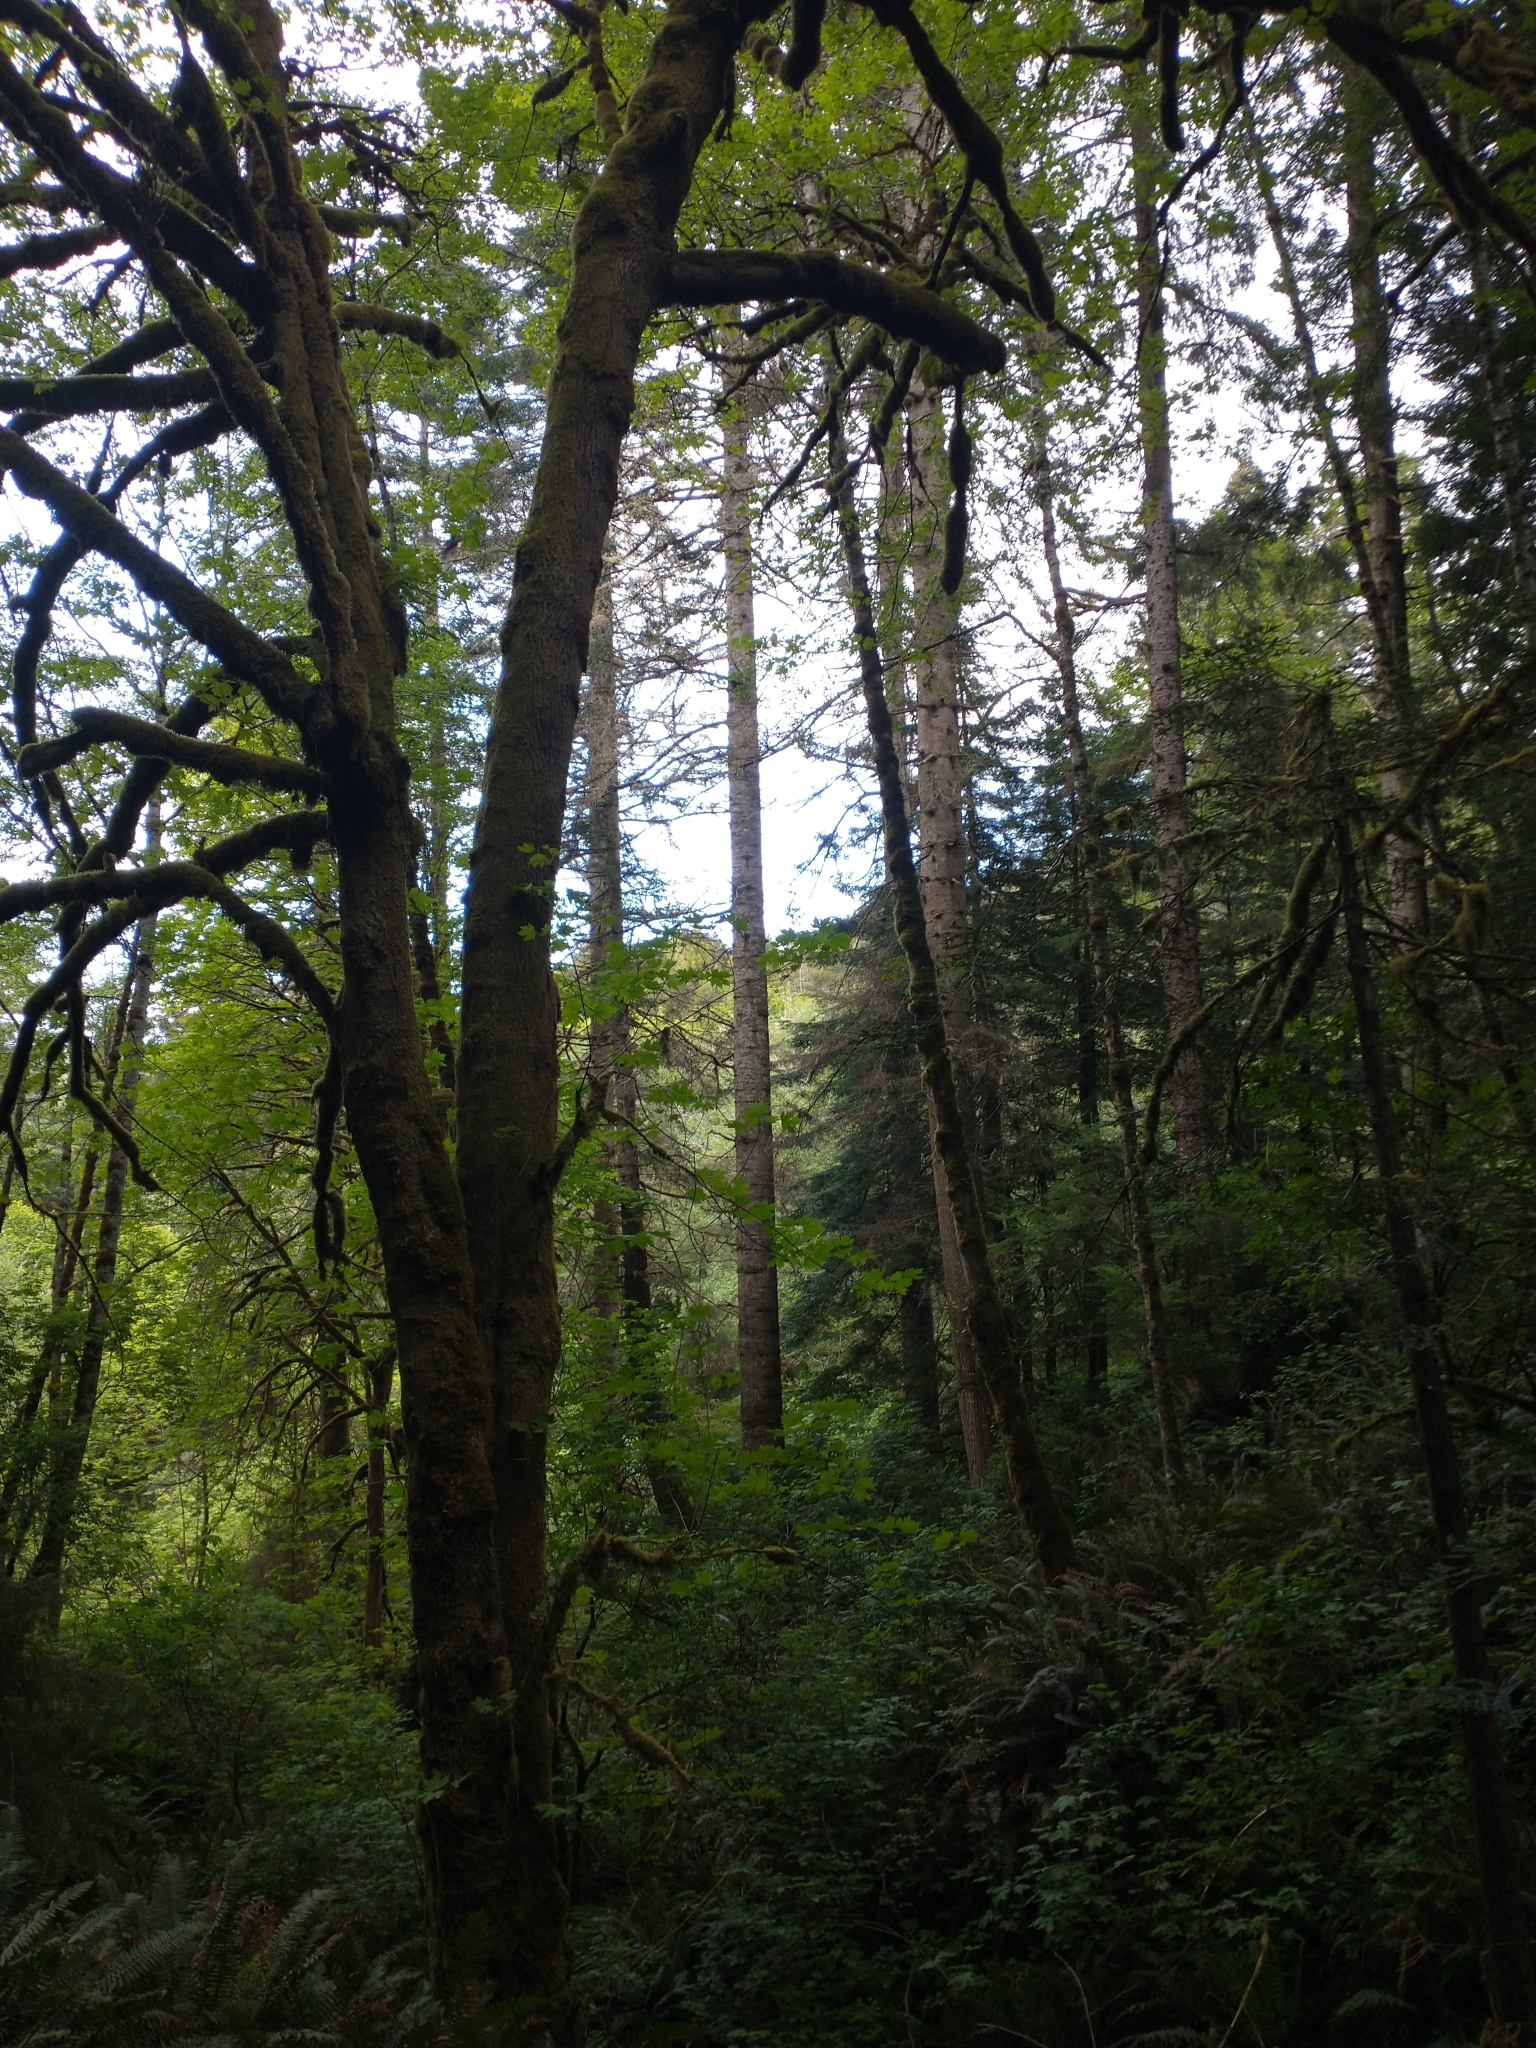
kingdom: Plantae
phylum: Tracheophyta
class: Magnoliopsida
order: Sapindales
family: Sapindaceae
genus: Acer
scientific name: Acer macrophyllum
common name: Oregon maple
